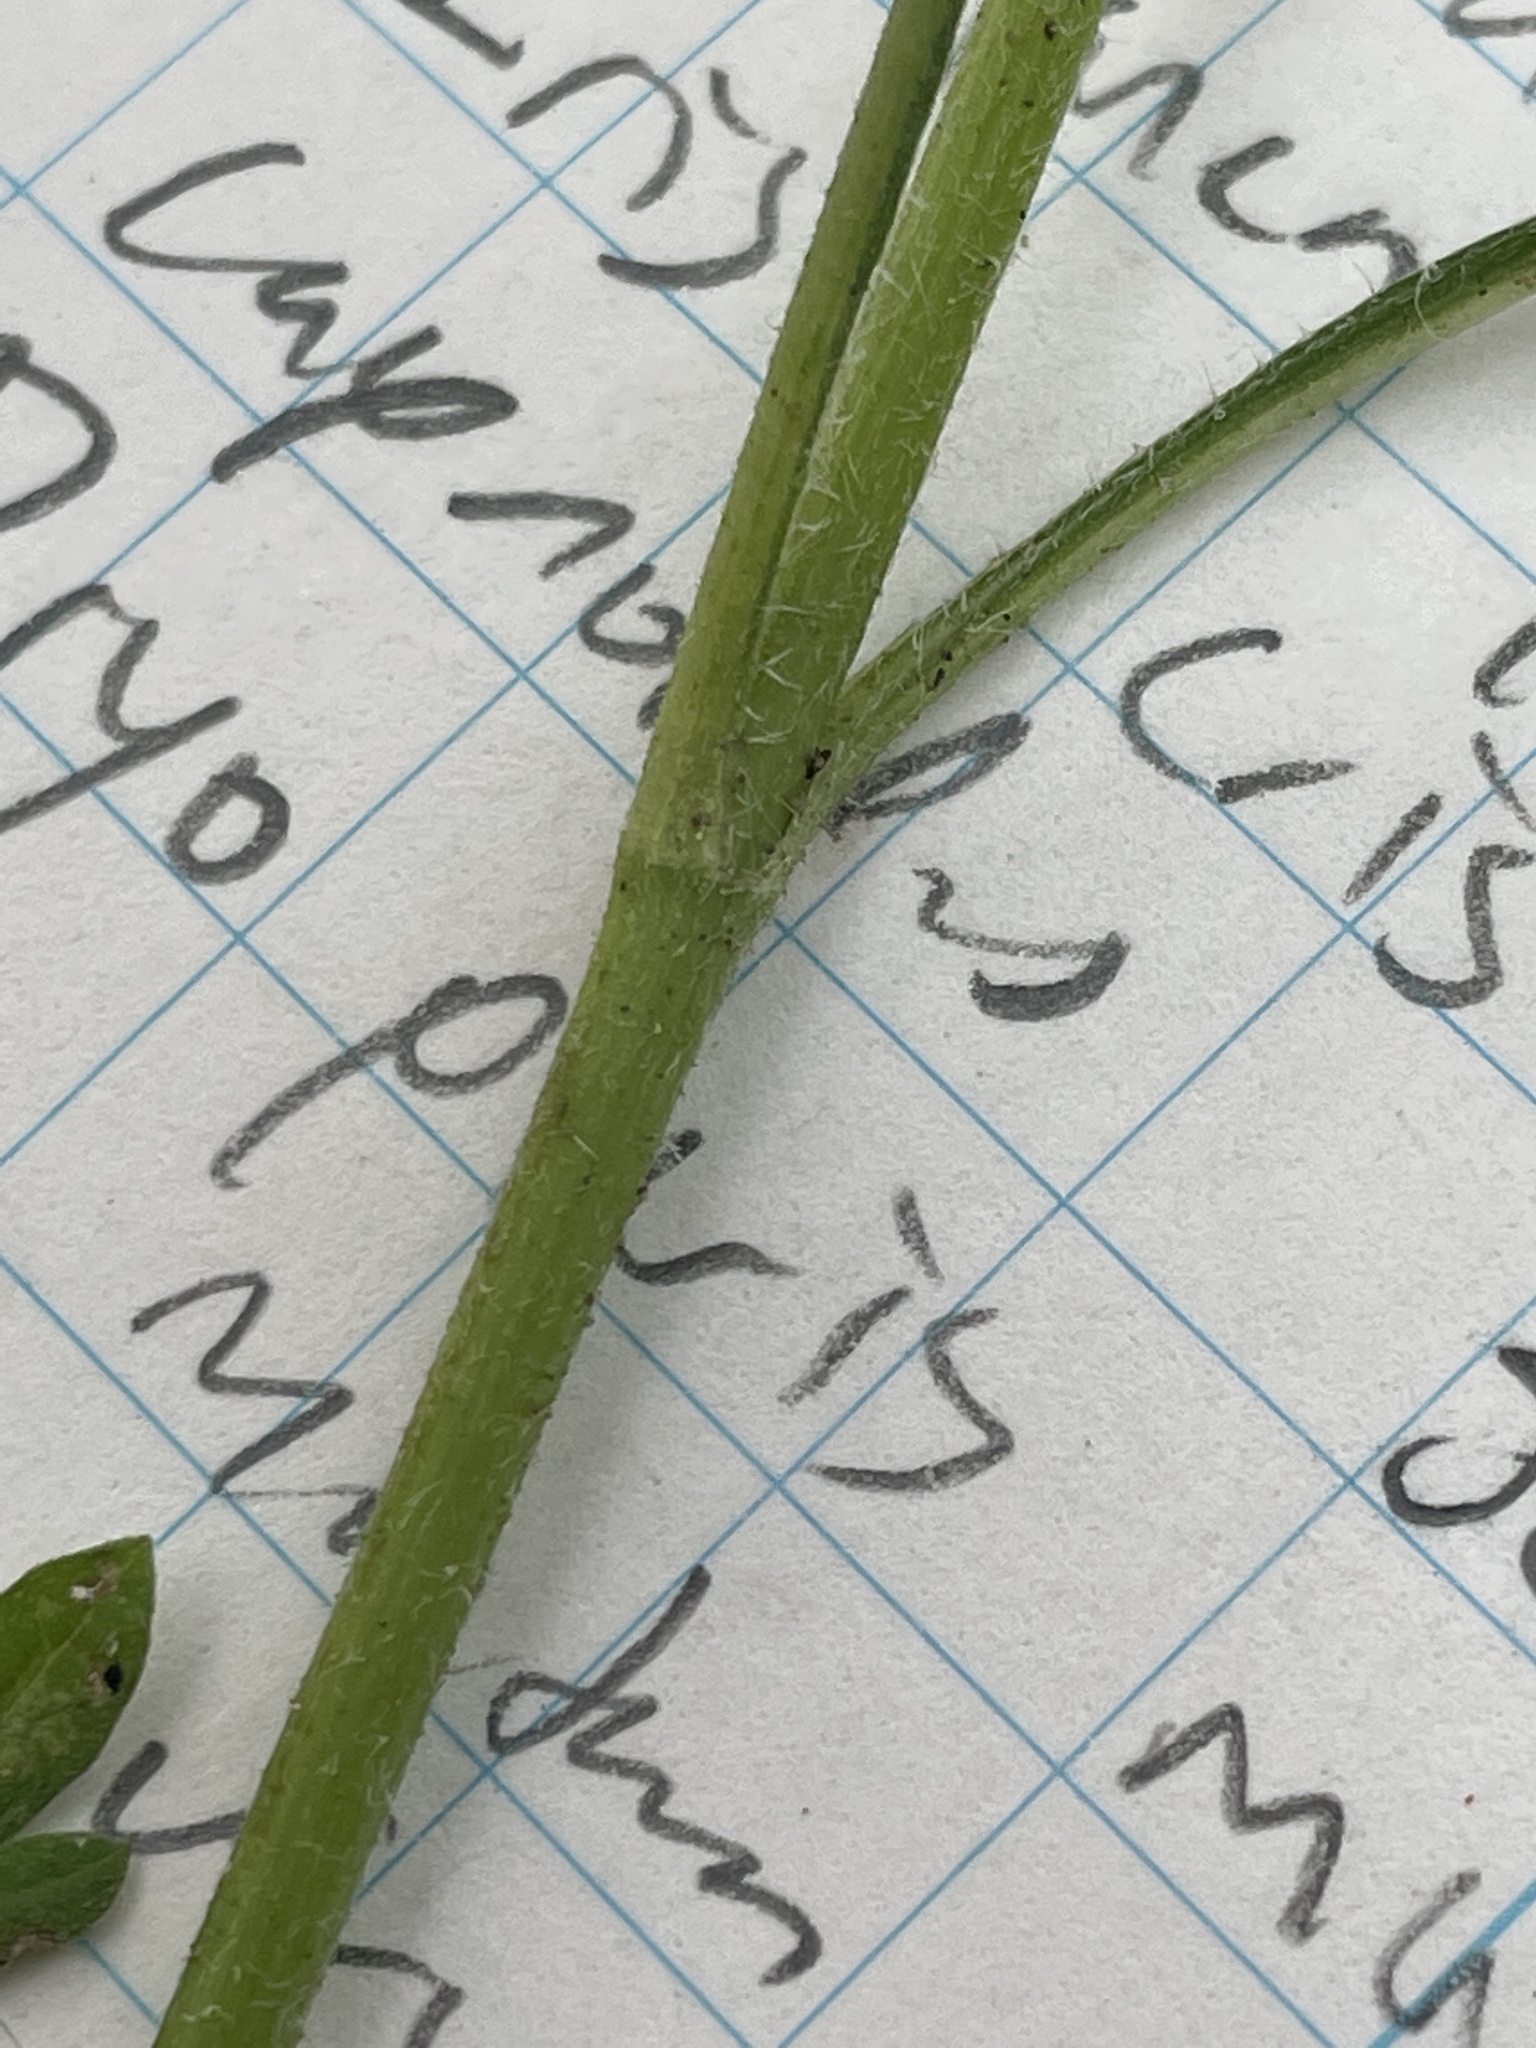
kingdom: Plantae
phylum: Tracheophyta
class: Magnoliopsida
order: Asterales
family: Asteraceae
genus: Ambrosia
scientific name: Ambrosia artemisiifolia
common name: Annual ragweed
